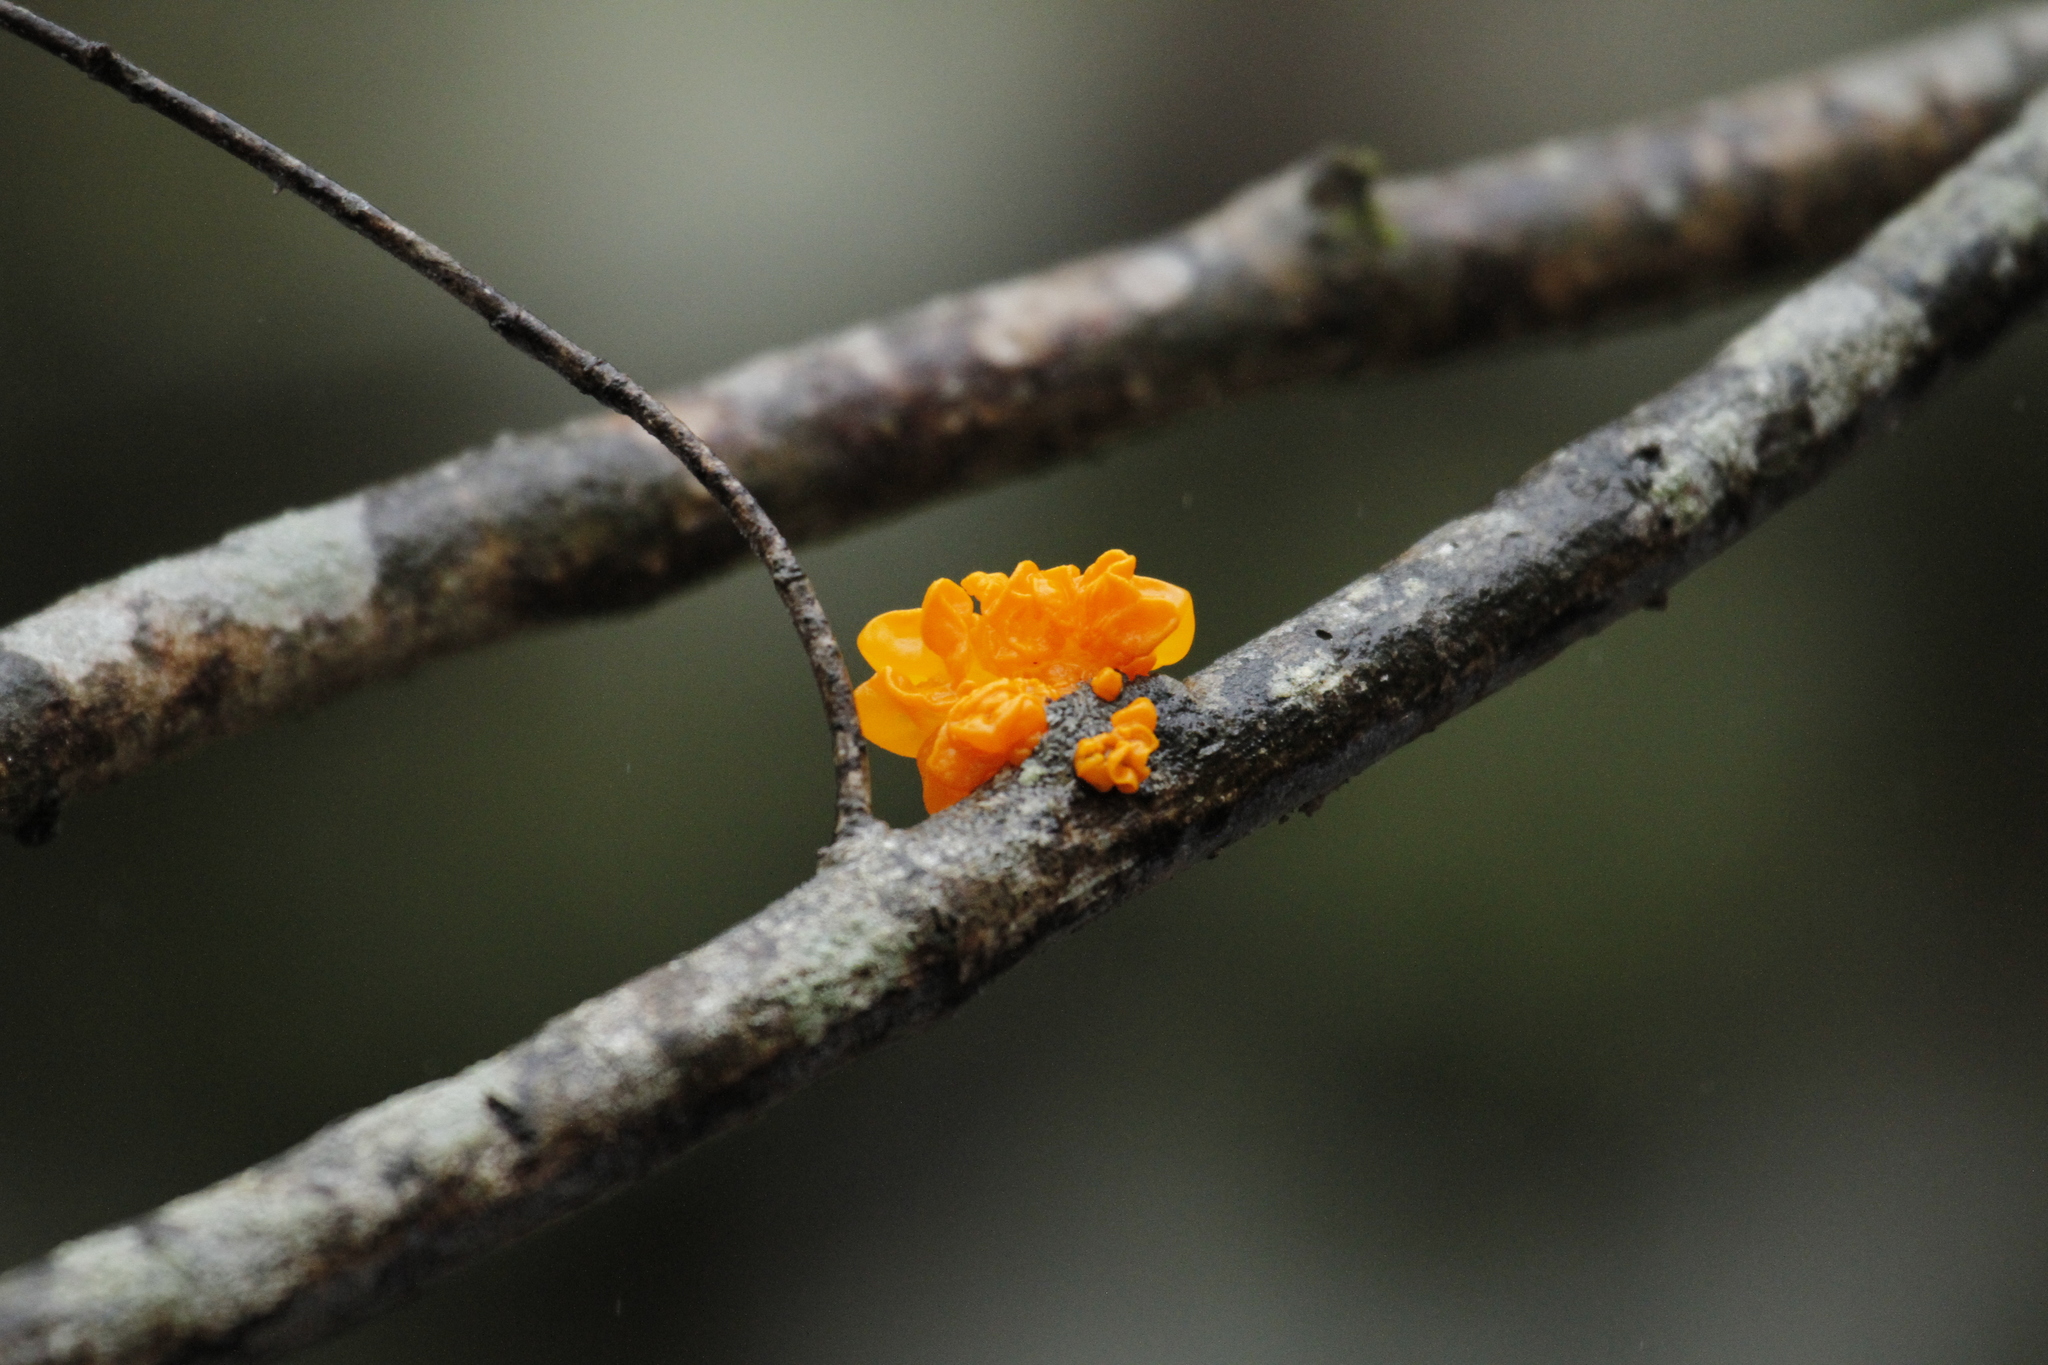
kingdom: Fungi
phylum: Basidiomycota
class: Tremellomycetes
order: Tremellales
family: Tremellaceae
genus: Tremella
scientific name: Tremella mesenterica
